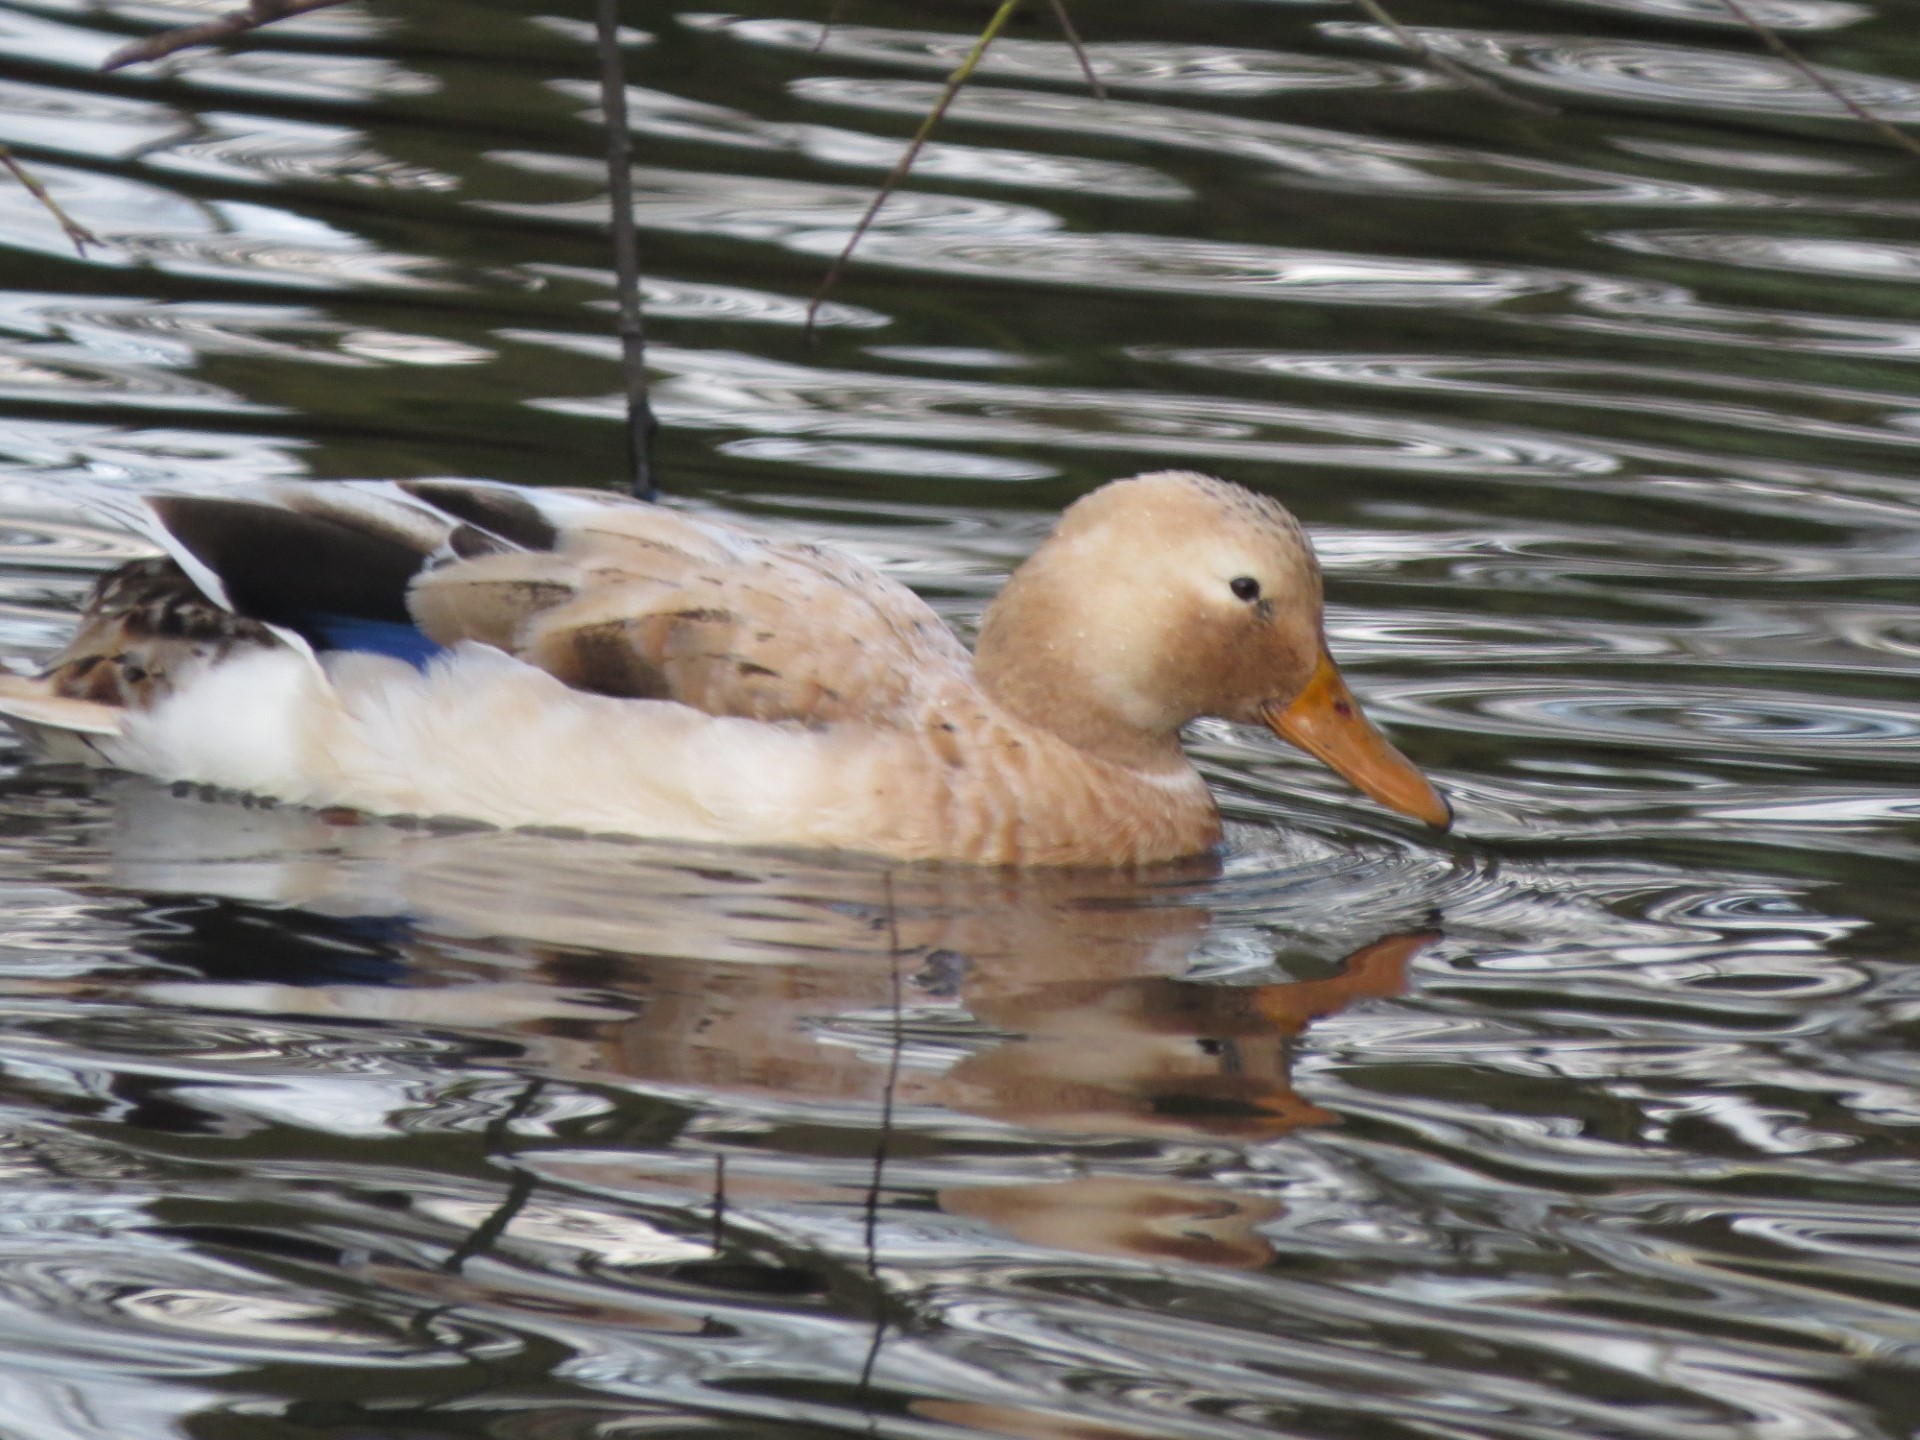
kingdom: Animalia
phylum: Chordata
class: Aves
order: Anseriformes
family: Anatidae
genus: Anas
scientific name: Anas platyrhynchos
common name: Mallard
